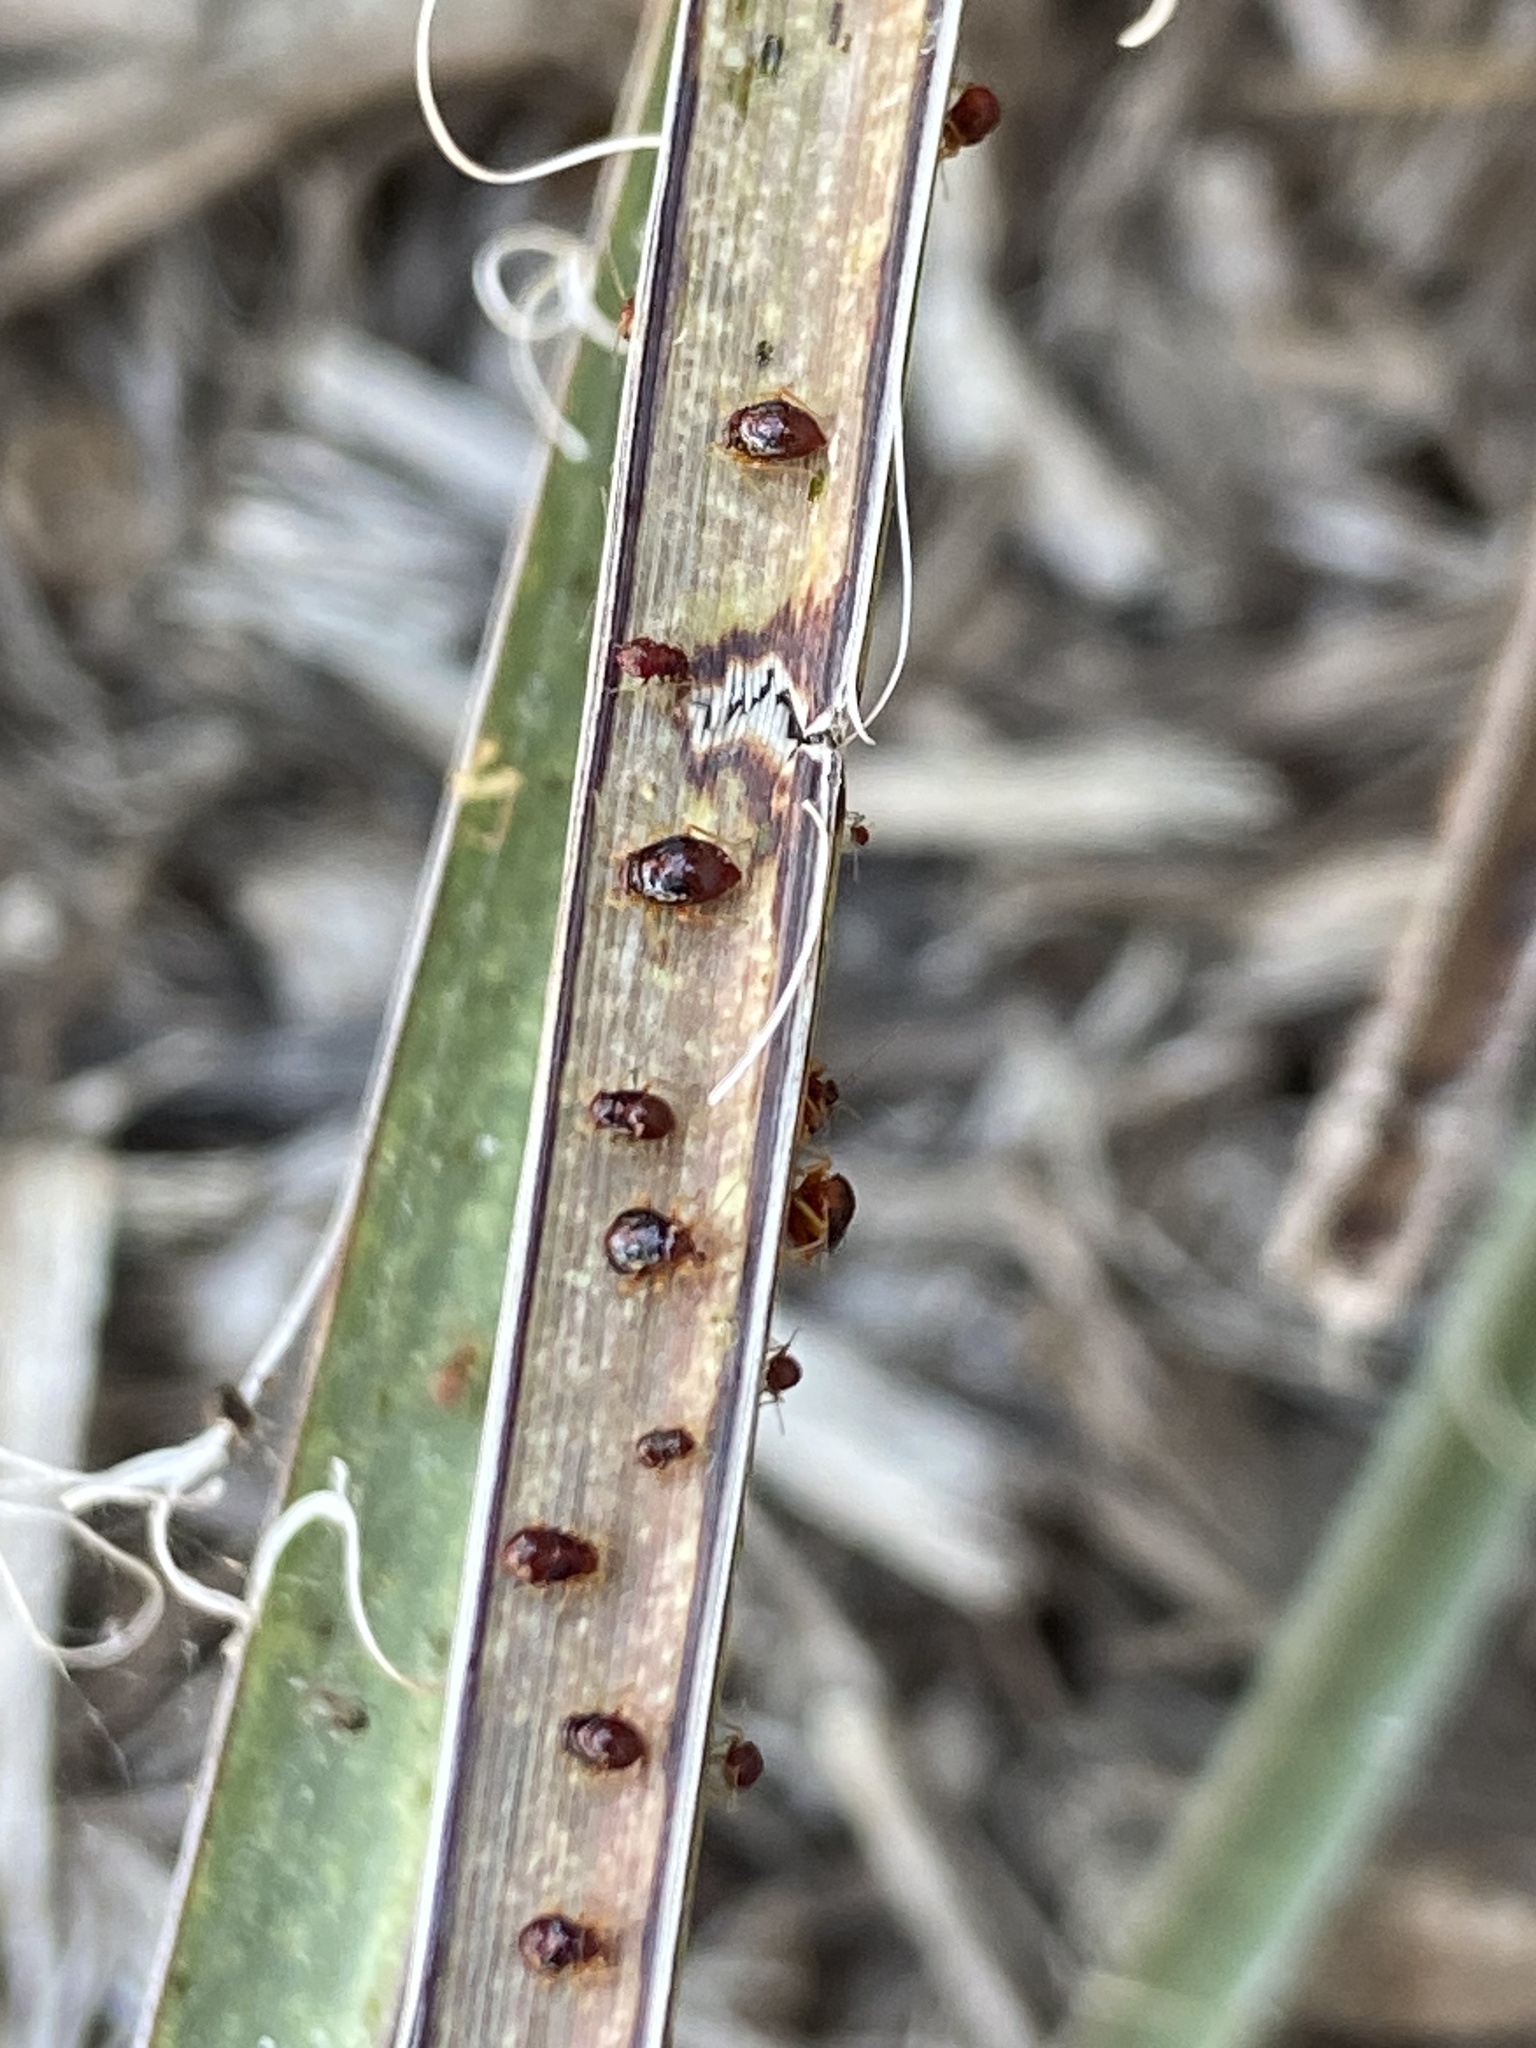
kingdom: Animalia
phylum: Arthropoda
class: Insecta
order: Hemiptera
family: Miridae
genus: Halticotoma
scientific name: Halticotoma valida
